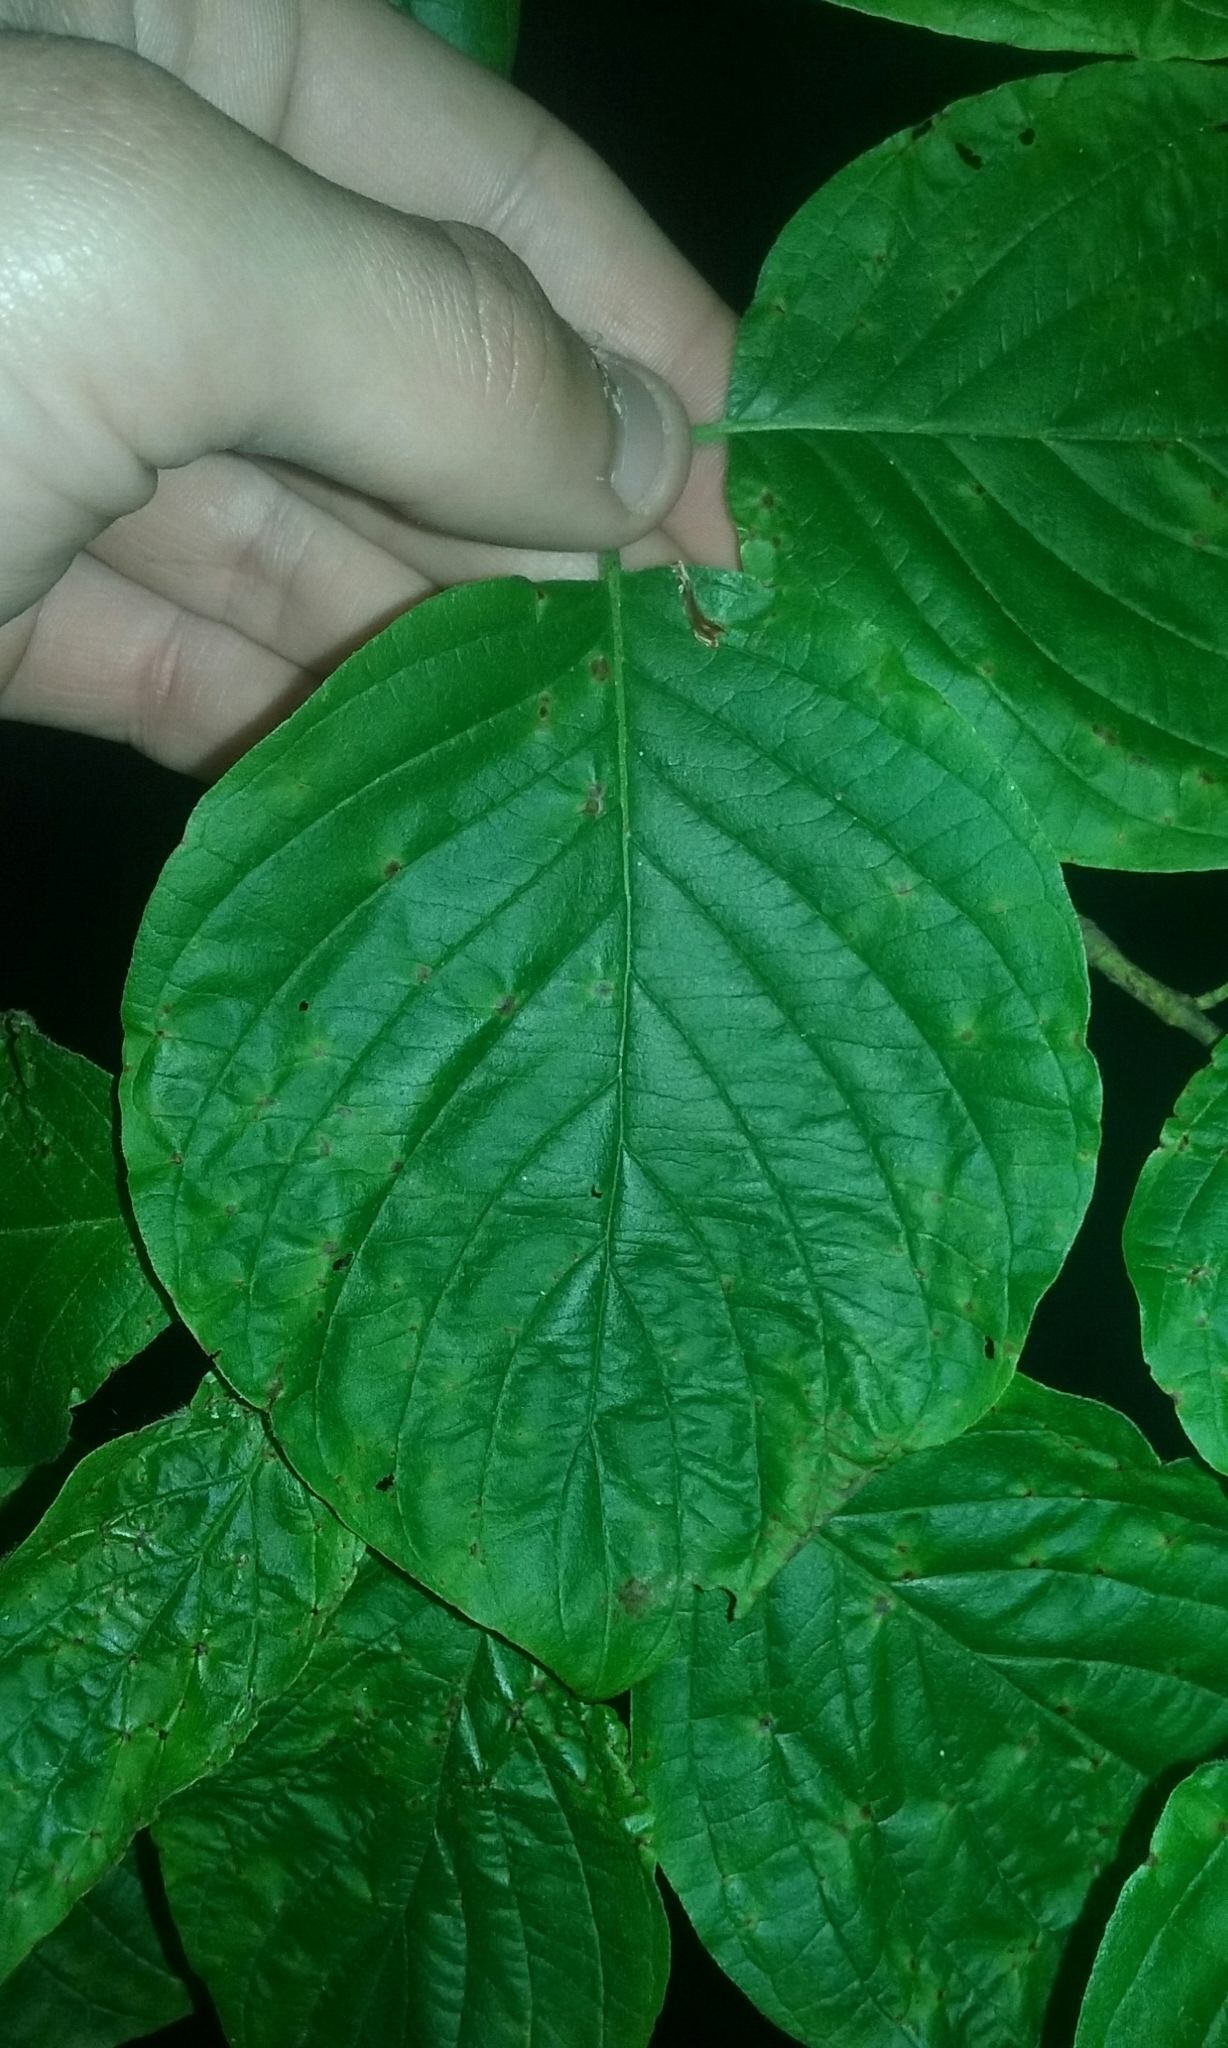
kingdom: Plantae
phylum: Tracheophyta
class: Magnoliopsida
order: Cornales
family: Cornaceae
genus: Cornus
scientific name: Cornus rugosa
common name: Round-leaf dogwood
